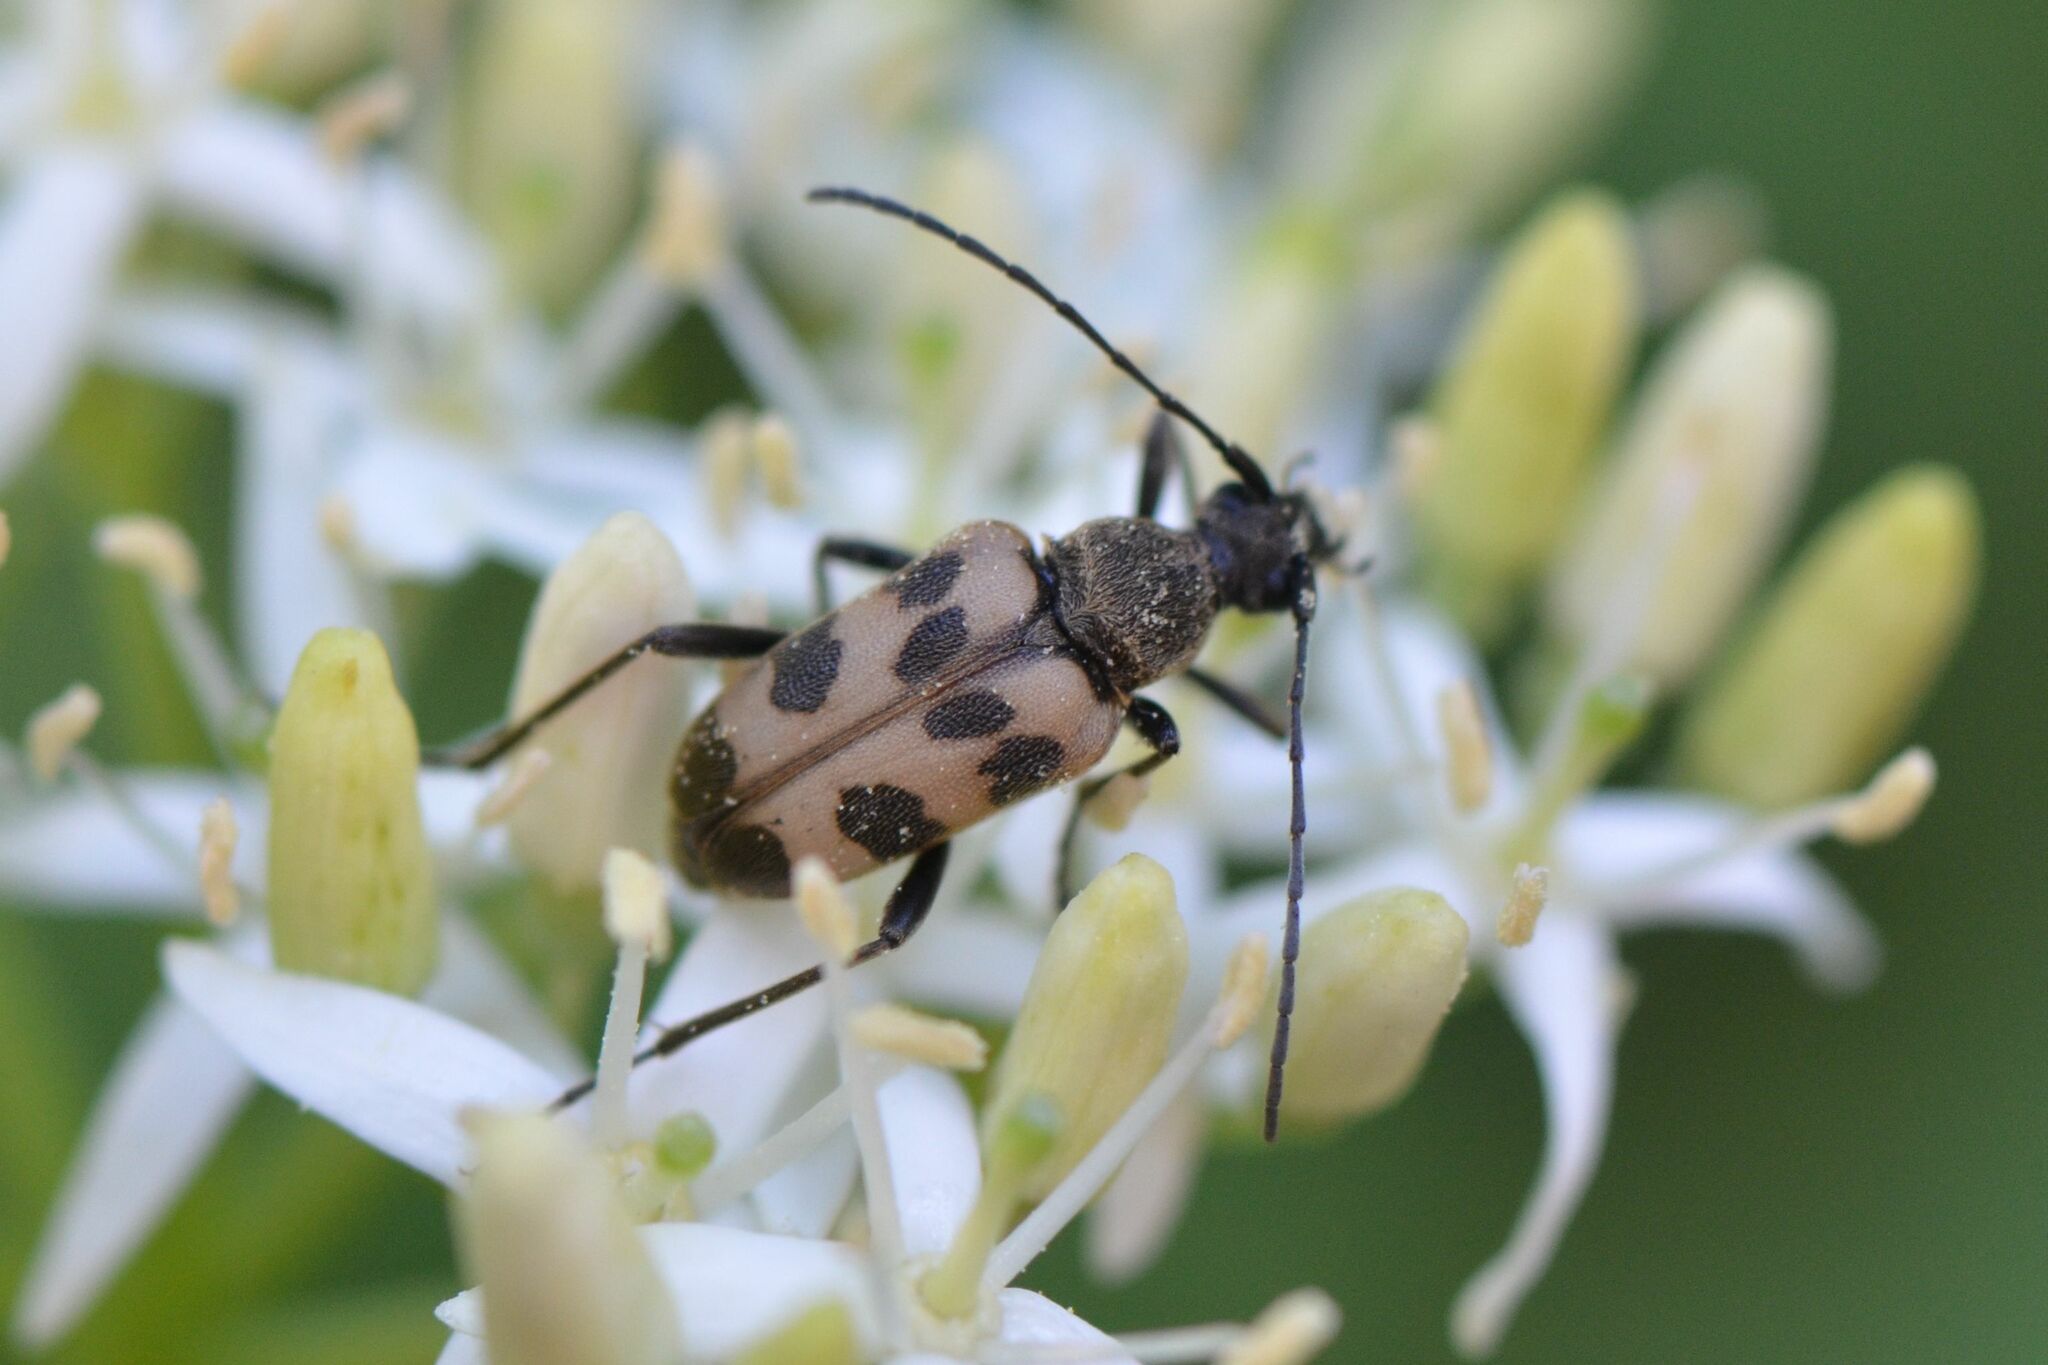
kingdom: Animalia
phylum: Arthropoda
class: Insecta
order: Coleoptera
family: Cerambycidae
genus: Pachytodes
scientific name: Pachytodes cerambyciformis
